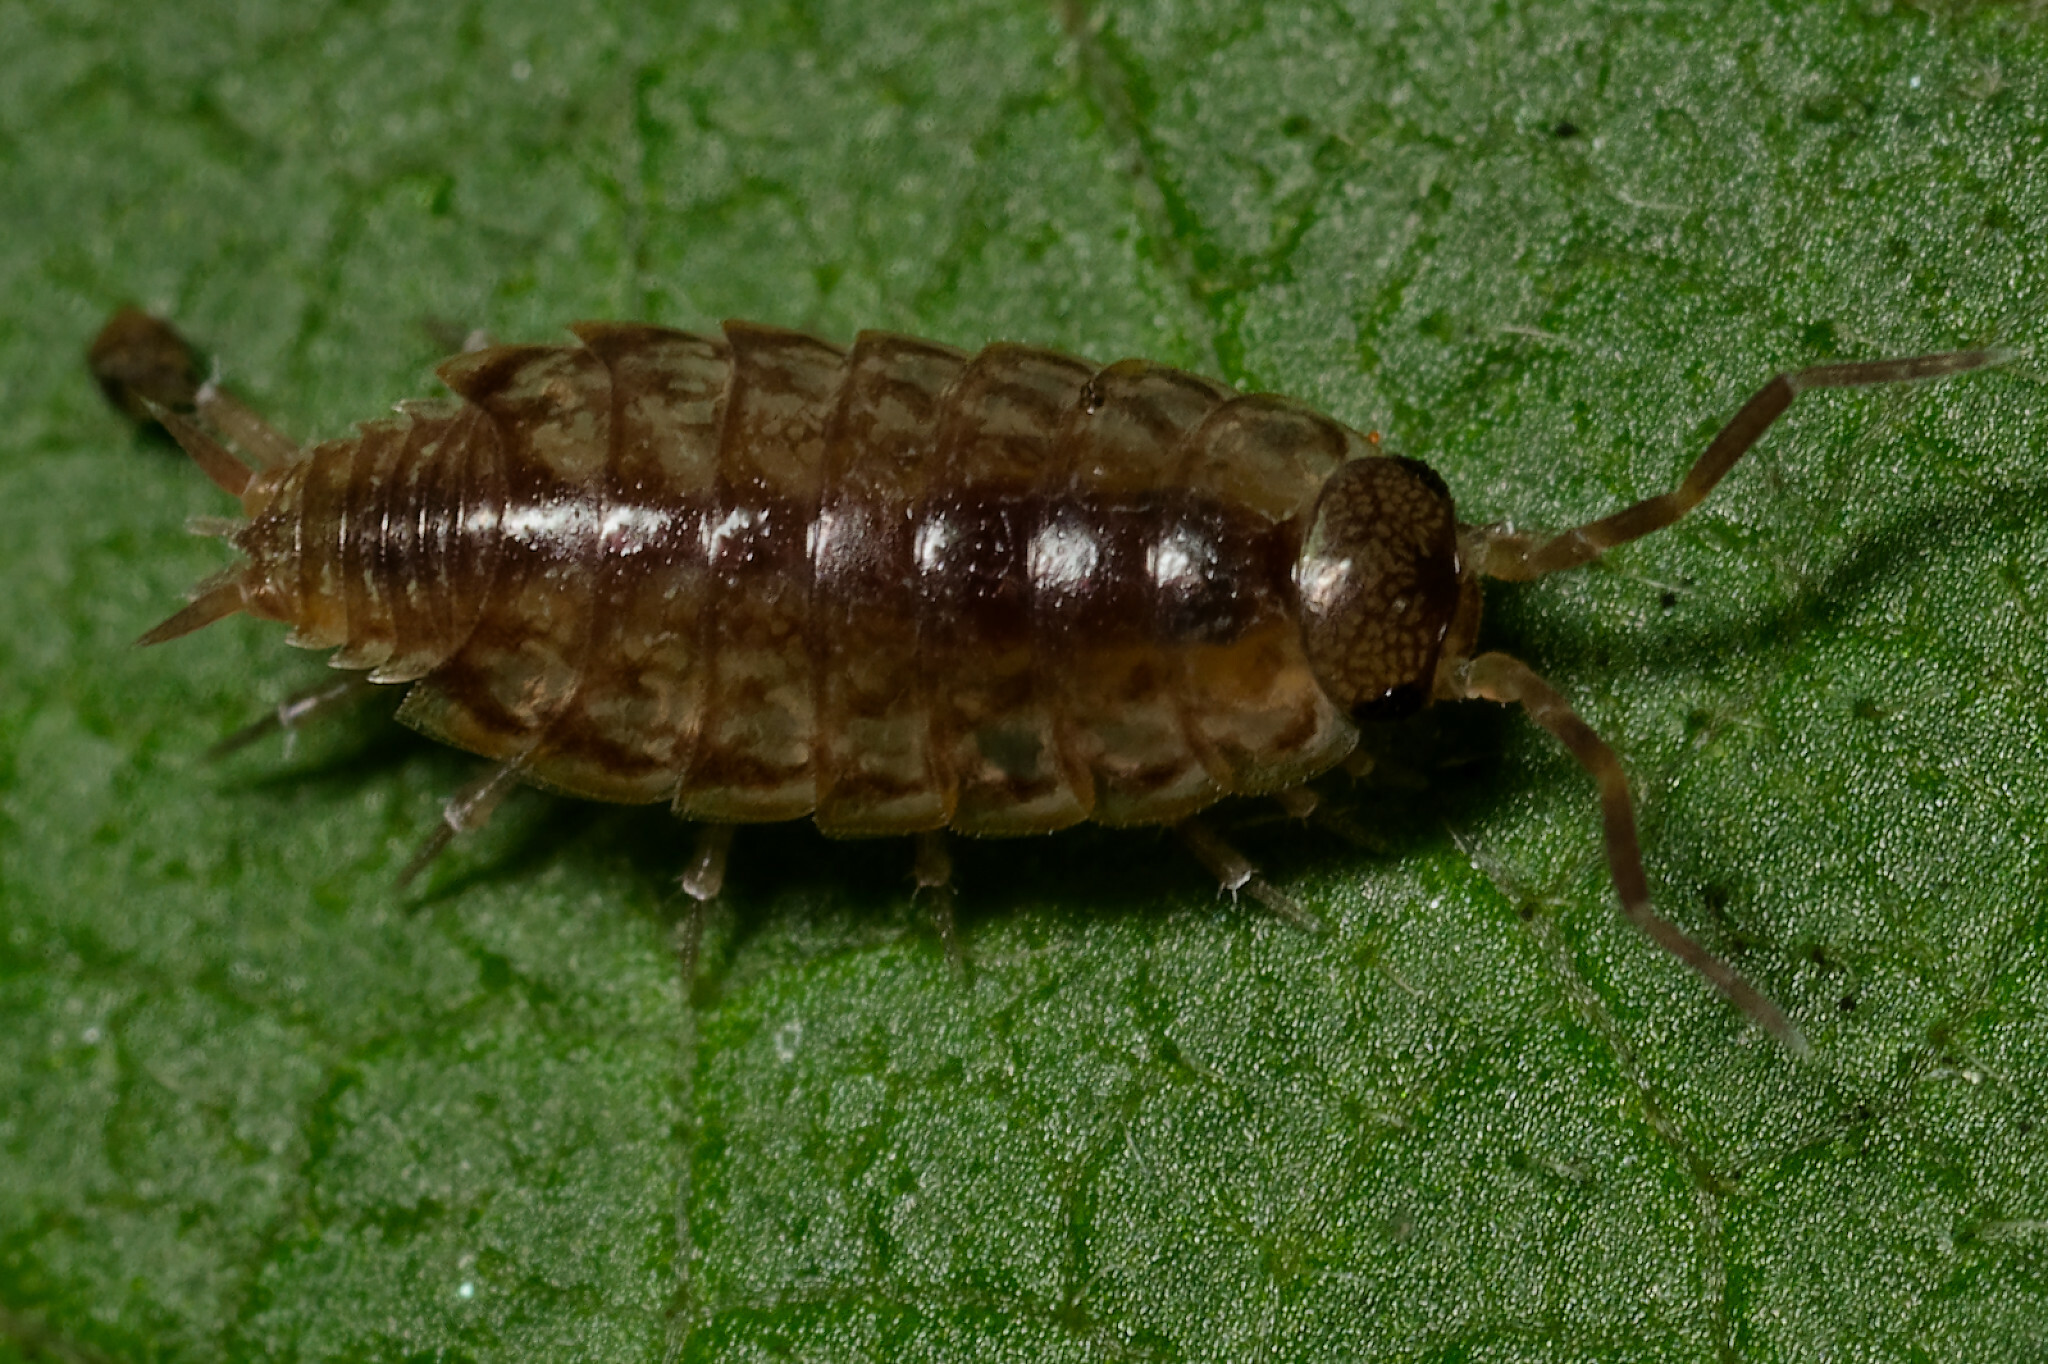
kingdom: Animalia
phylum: Arthropoda
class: Malacostraca
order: Isopoda
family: Philosciidae
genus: Philoscia
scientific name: Philoscia muscorum
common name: Common striped woodlouse
